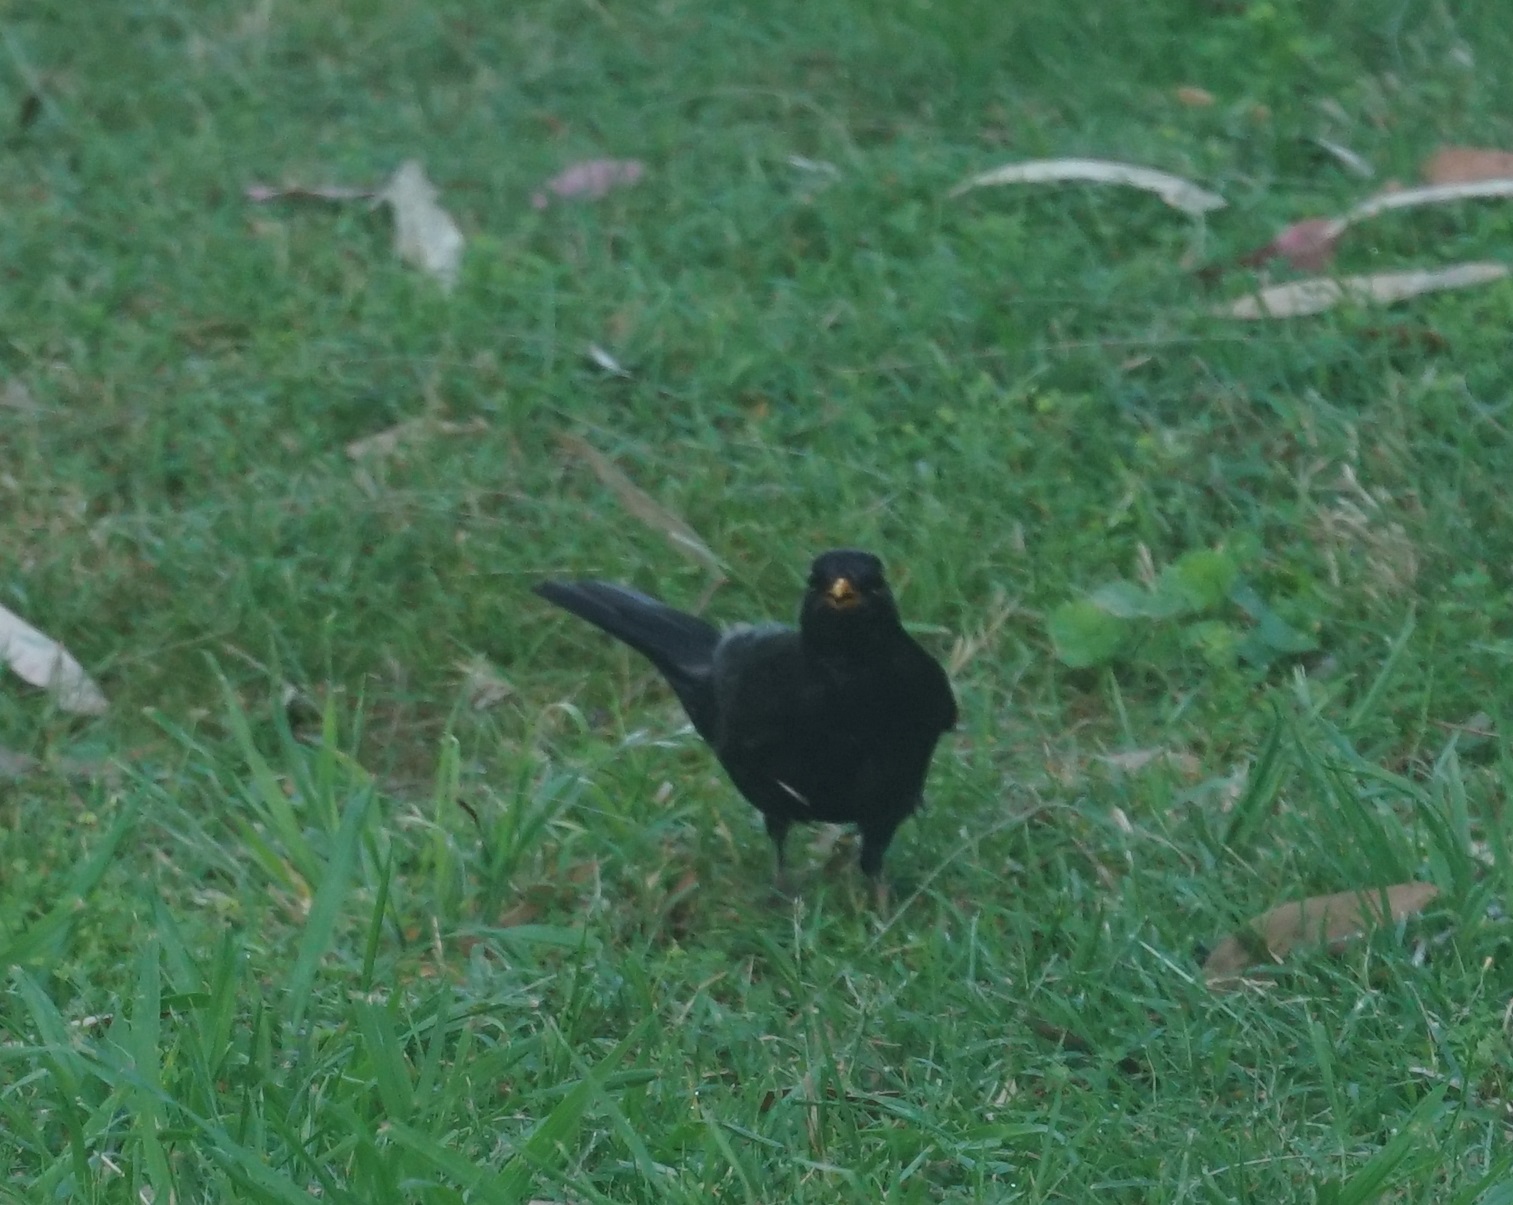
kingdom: Animalia
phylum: Chordata
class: Aves
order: Passeriformes
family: Turdidae
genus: Turdus
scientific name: Turdus merula
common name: Common blackbird
